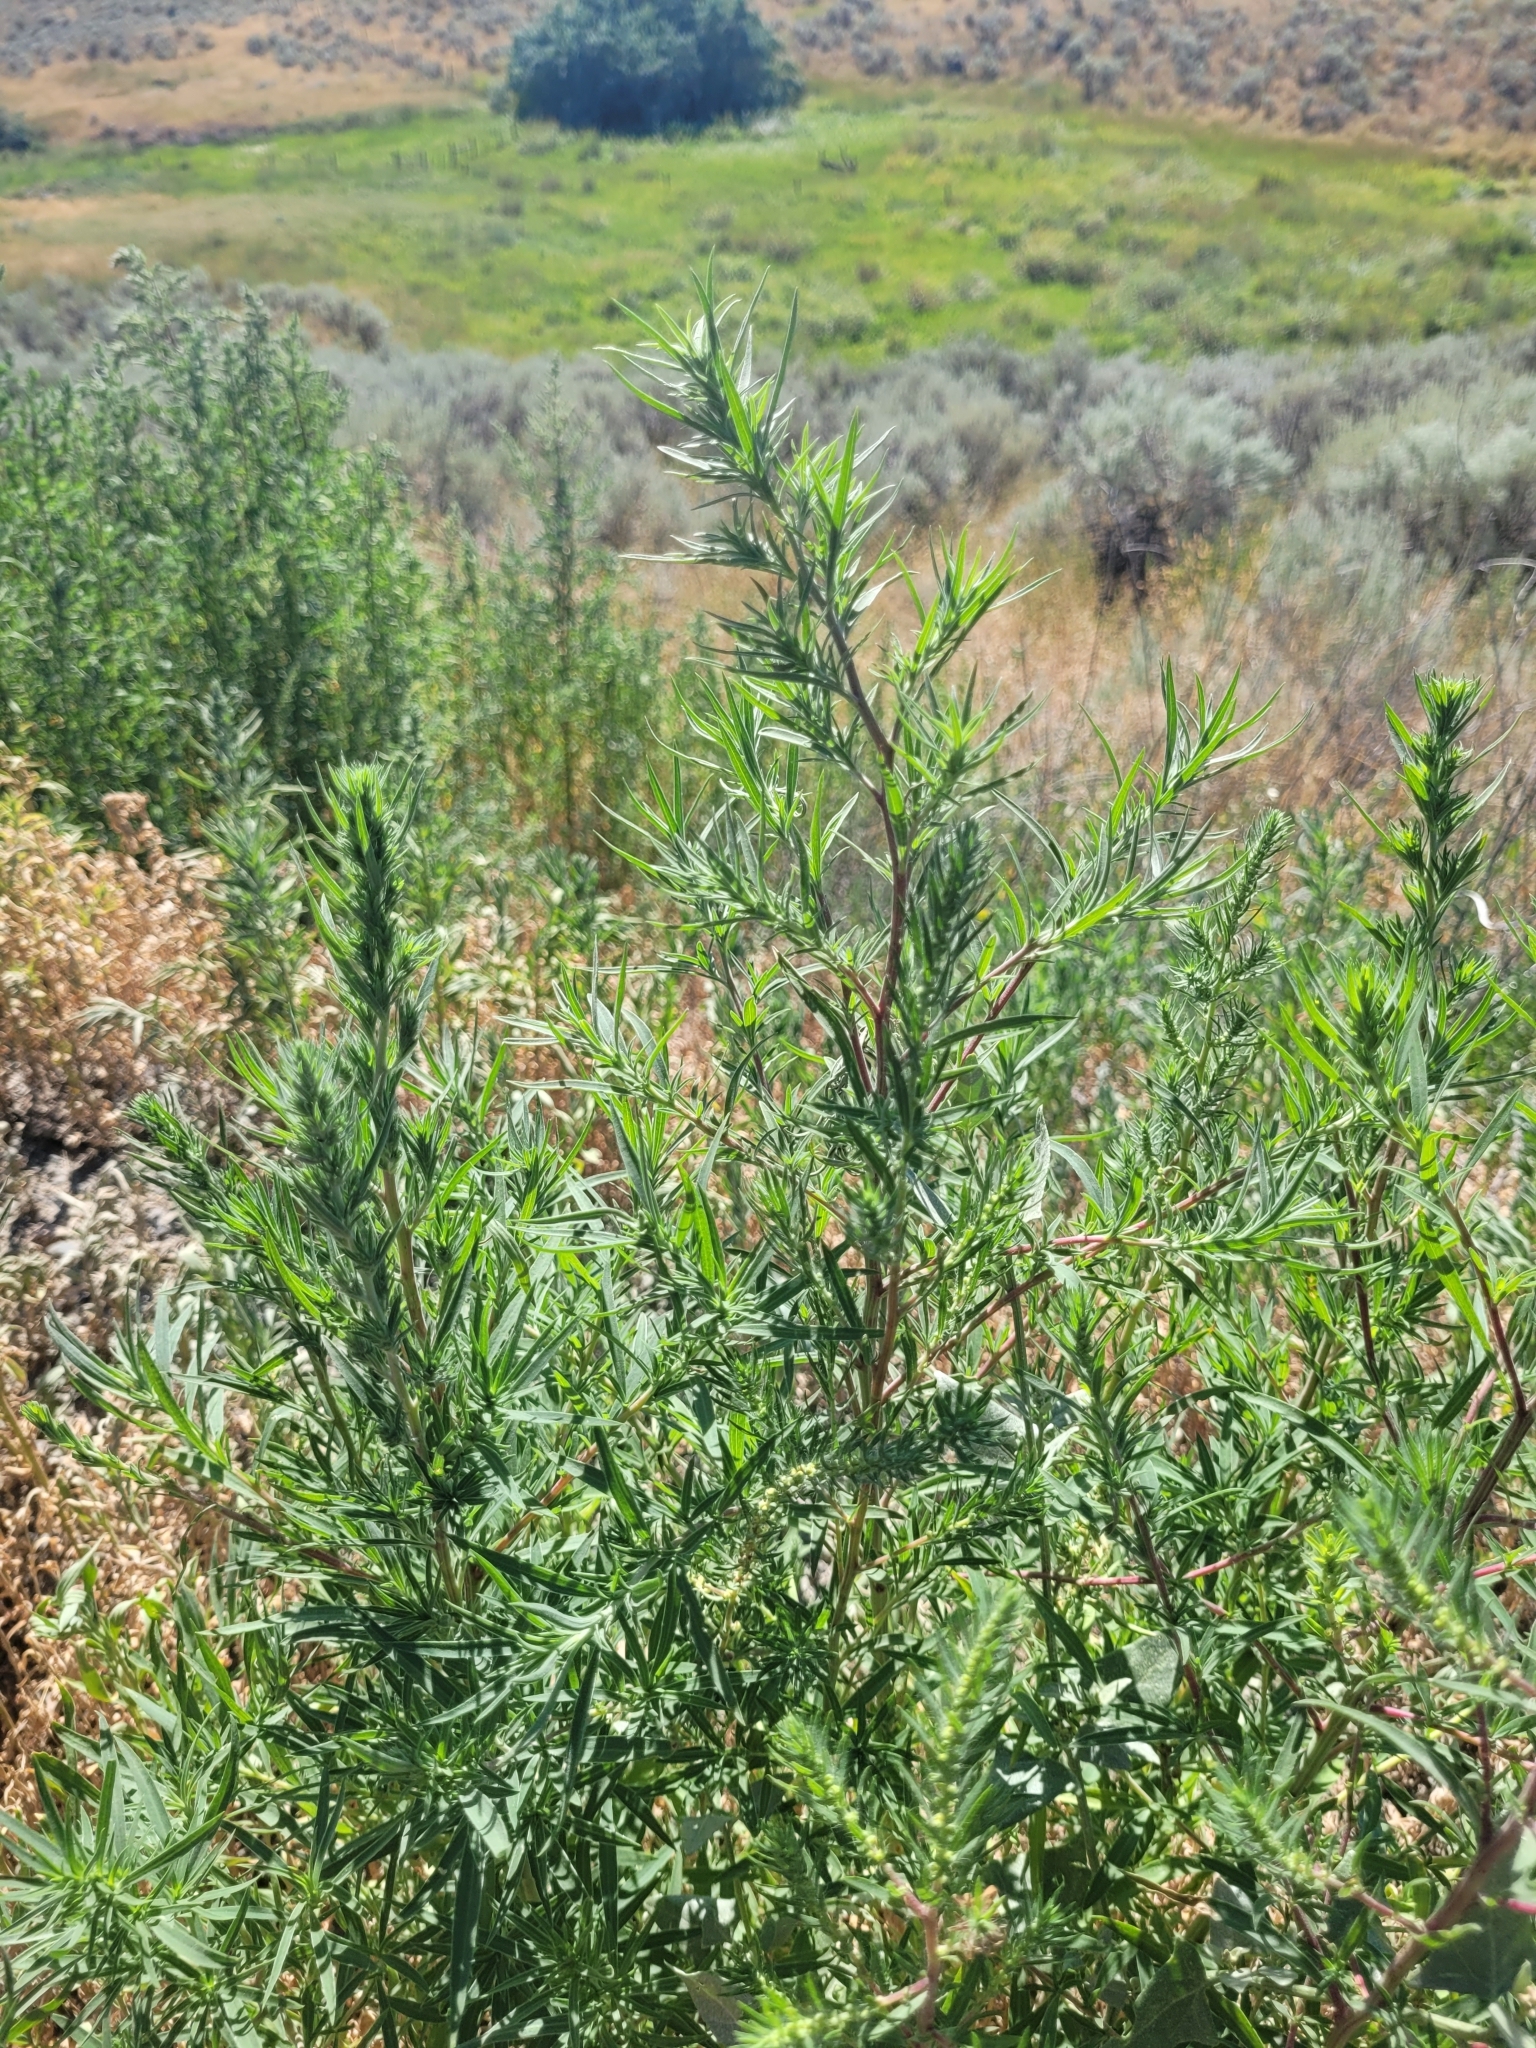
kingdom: Plantae
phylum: Tracheophyta
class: Magnoliopsida
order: Caryophyllales
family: Amaranthaceae
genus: Bassia
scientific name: Bassia scoparia
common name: Belvedere
